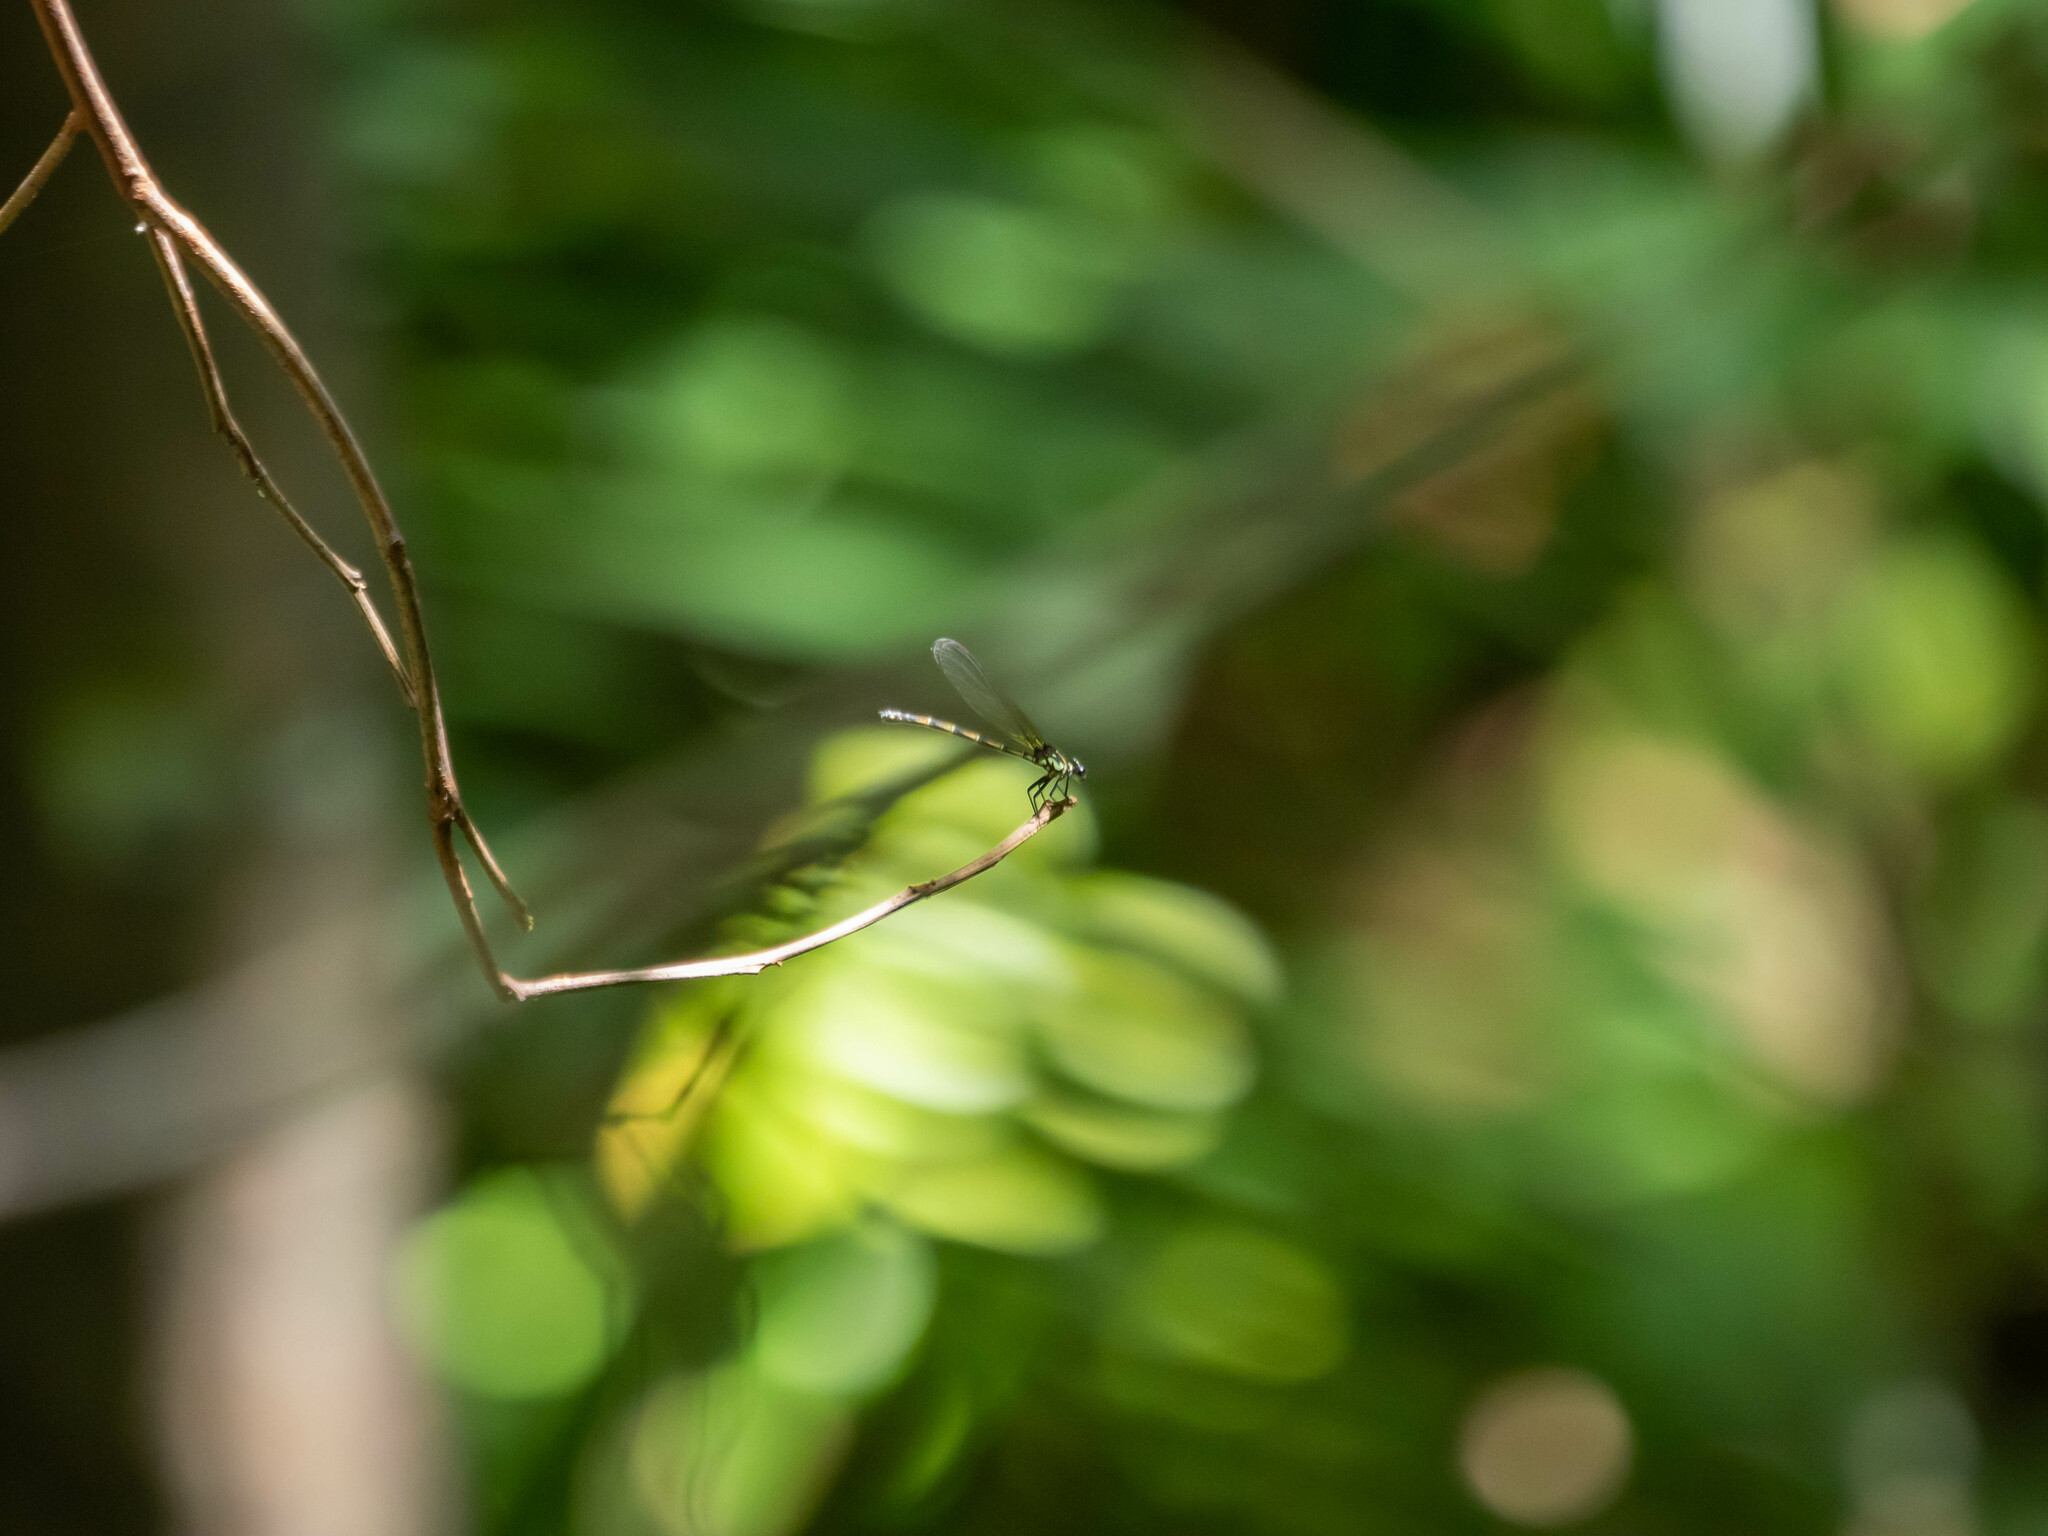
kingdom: Animalia
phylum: Arthropoda
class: Insecta
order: Odonata
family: Euphaeidae
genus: Cyclophaea
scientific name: Cyclophaea cyanifrons
